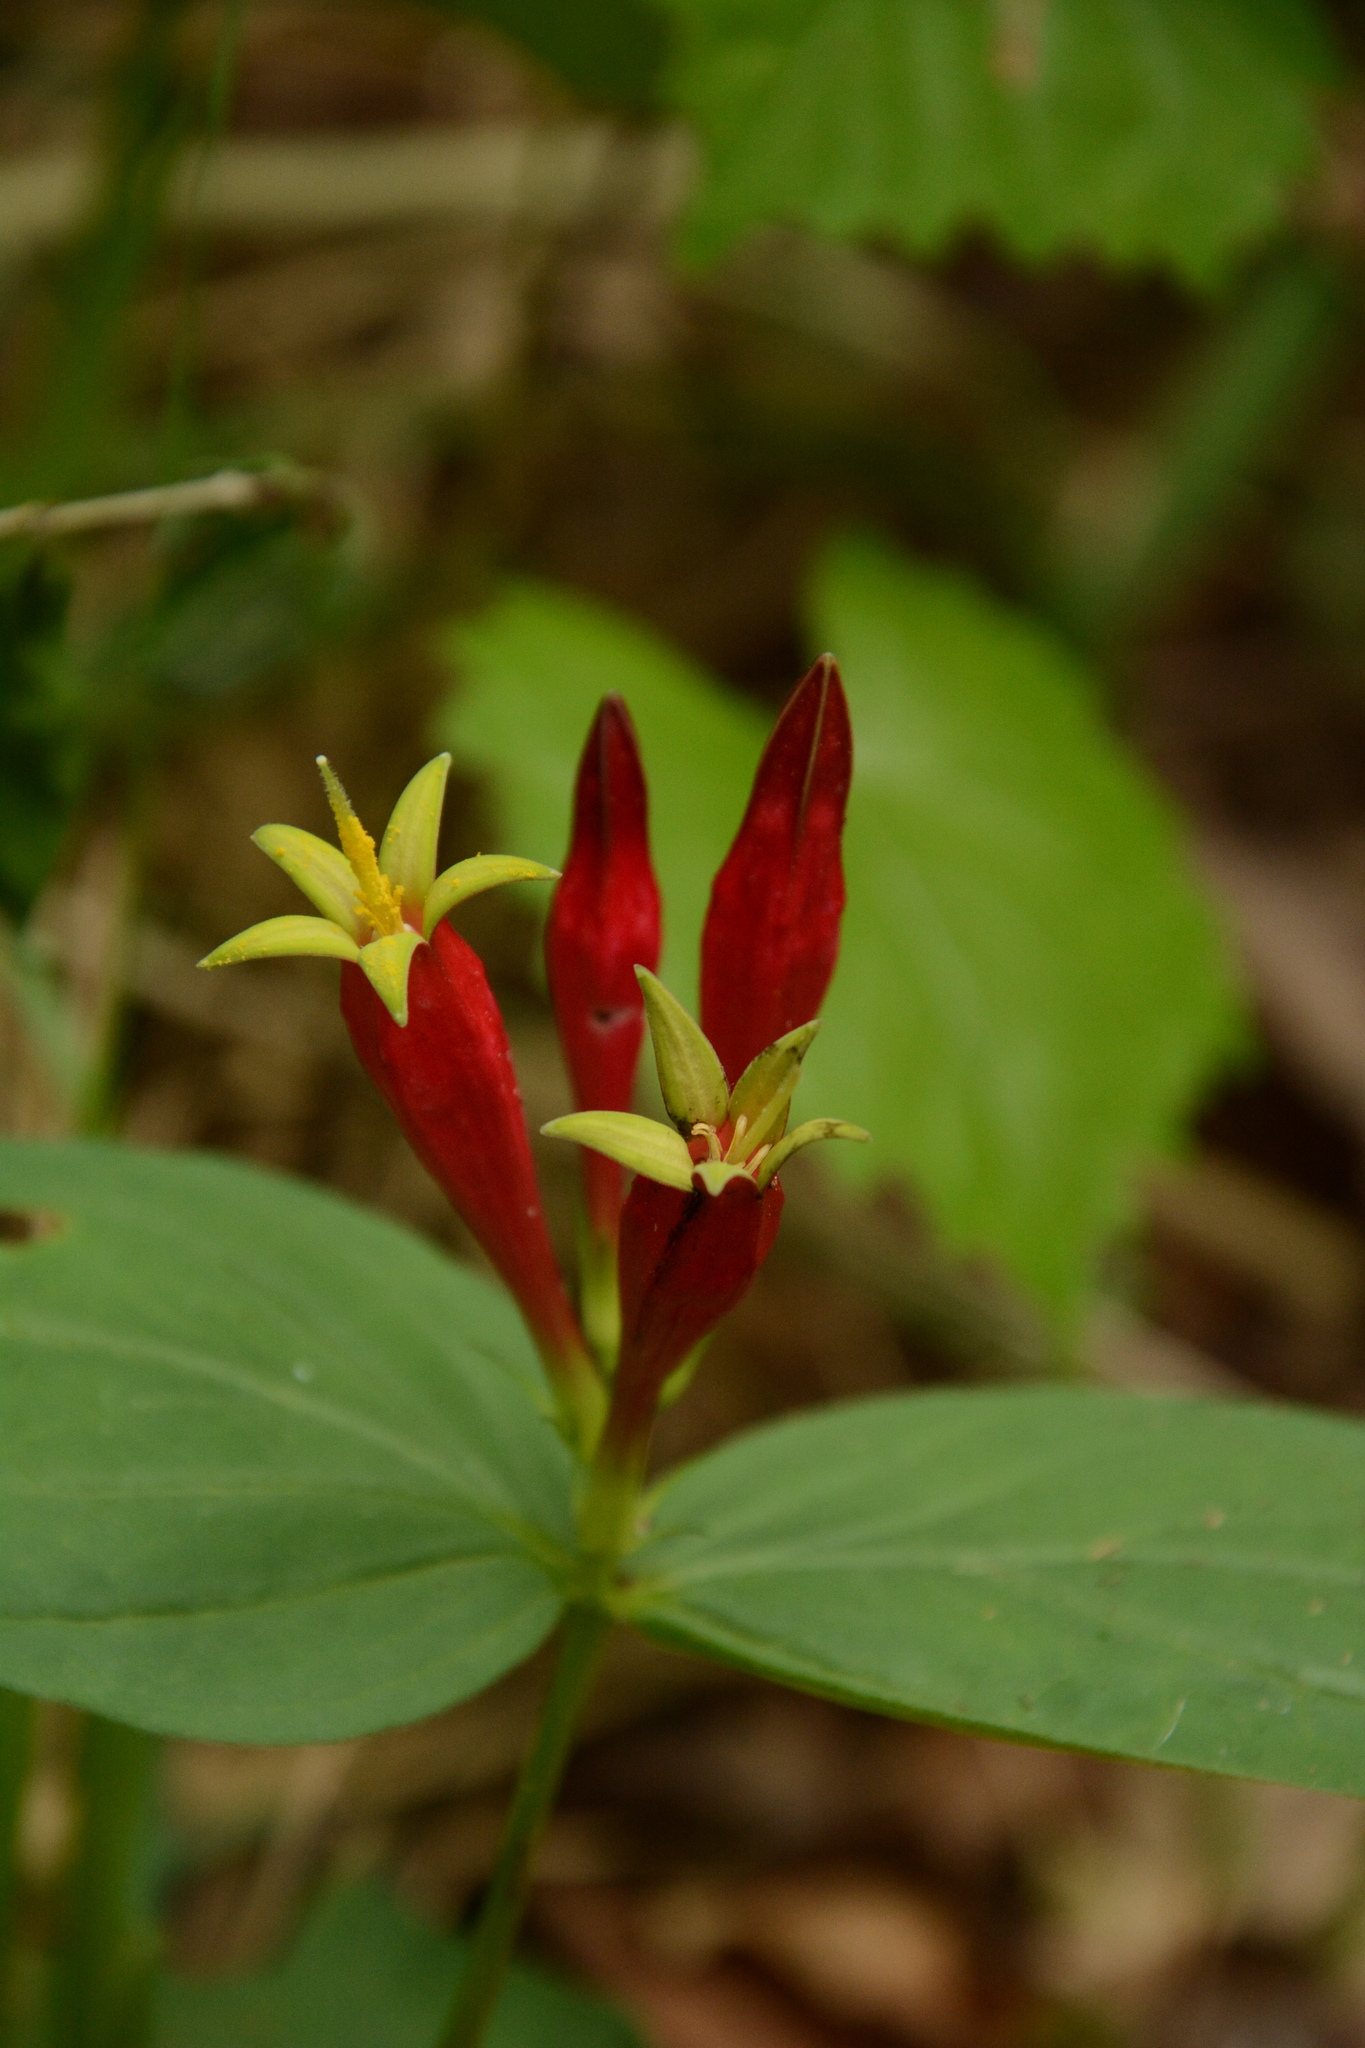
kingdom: Plantae
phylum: Tracheophyta
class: Magnoliopsida
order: Gentianales
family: Loganiaceae
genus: Spigelia
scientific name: Spigelia marilandica
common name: Indian-pink
